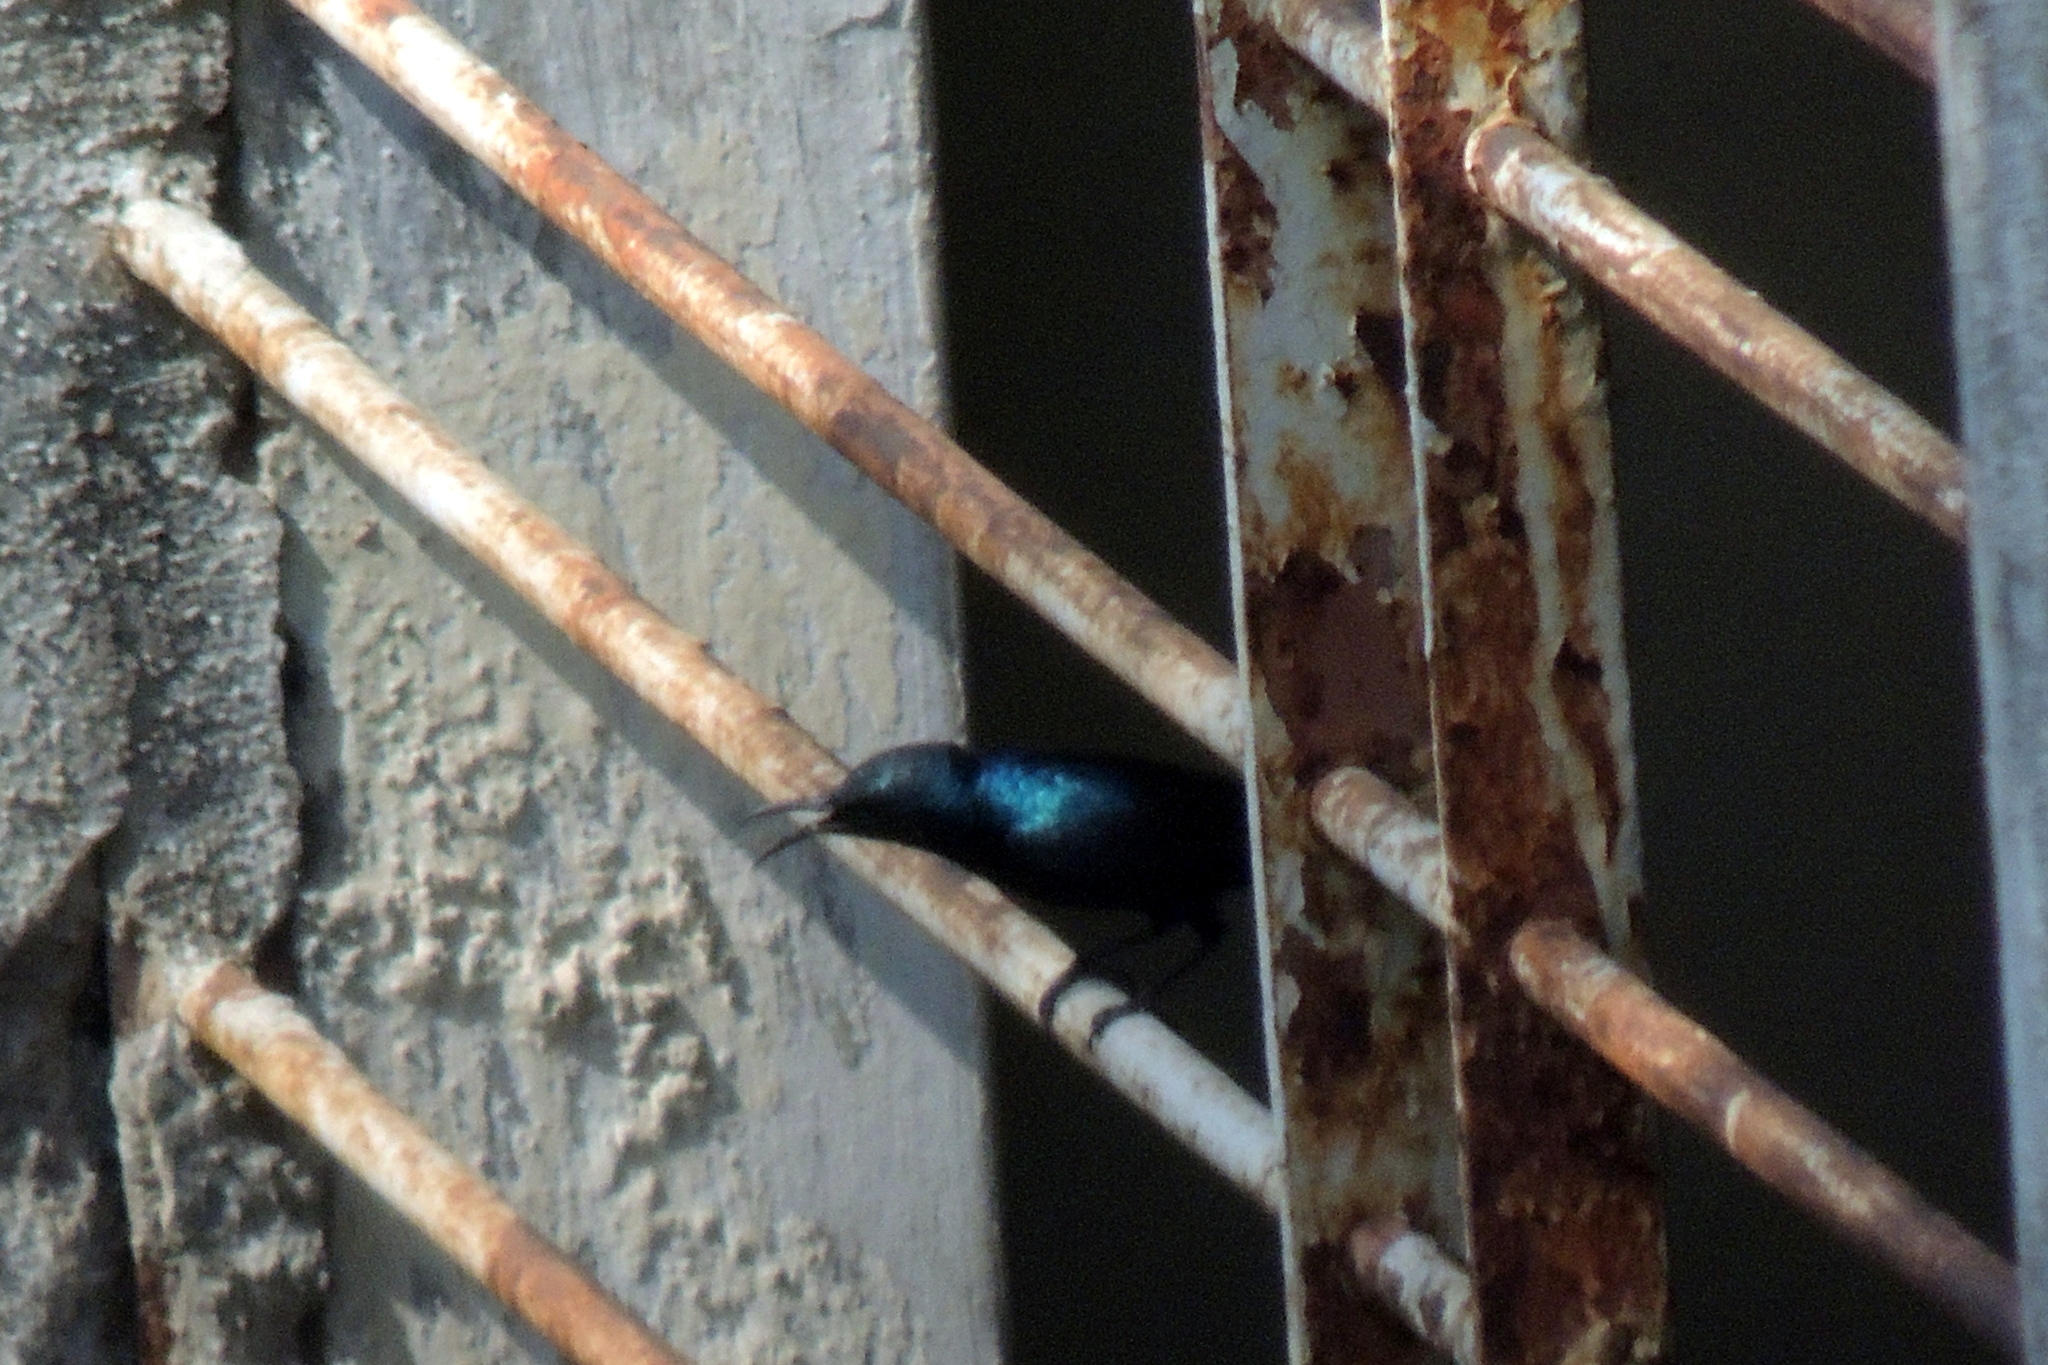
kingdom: Animalia
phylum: Chordata
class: Aves
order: Passeriformes
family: Nectariniidae
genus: Cinnyris
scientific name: Cinnyris asiaticus
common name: Purple sunbird
